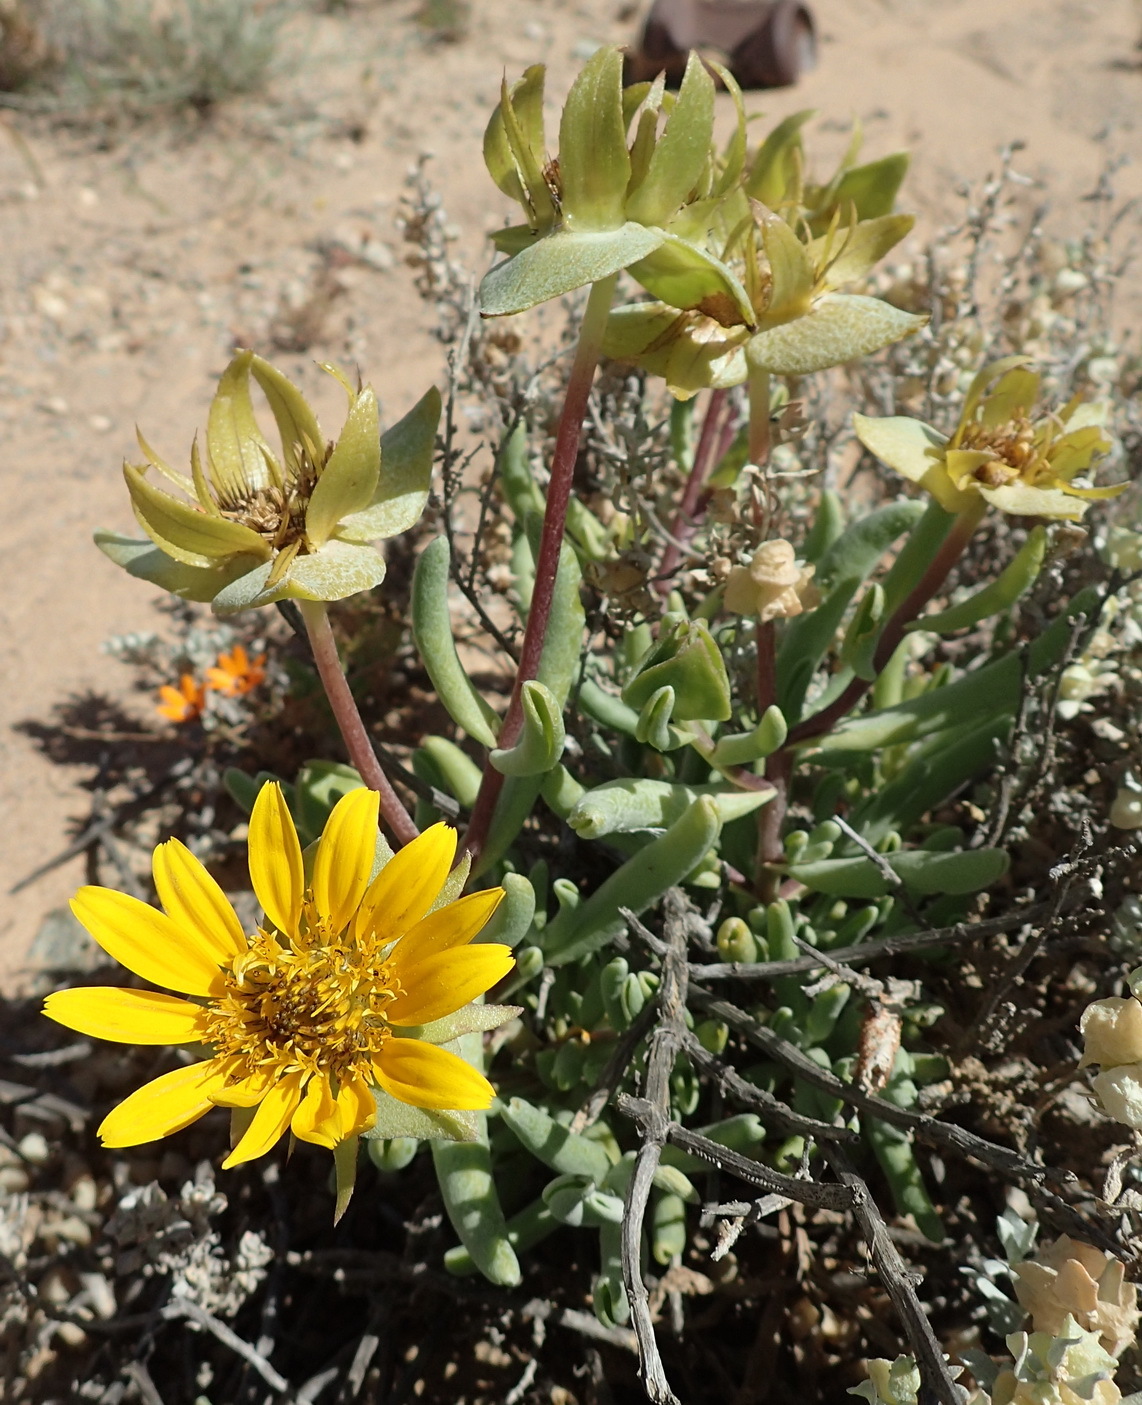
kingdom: Plantae
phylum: Tracheophyta
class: Magnoliopsida
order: Asterales
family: Asteraceae
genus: Didelta
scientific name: Didelta carnosa
